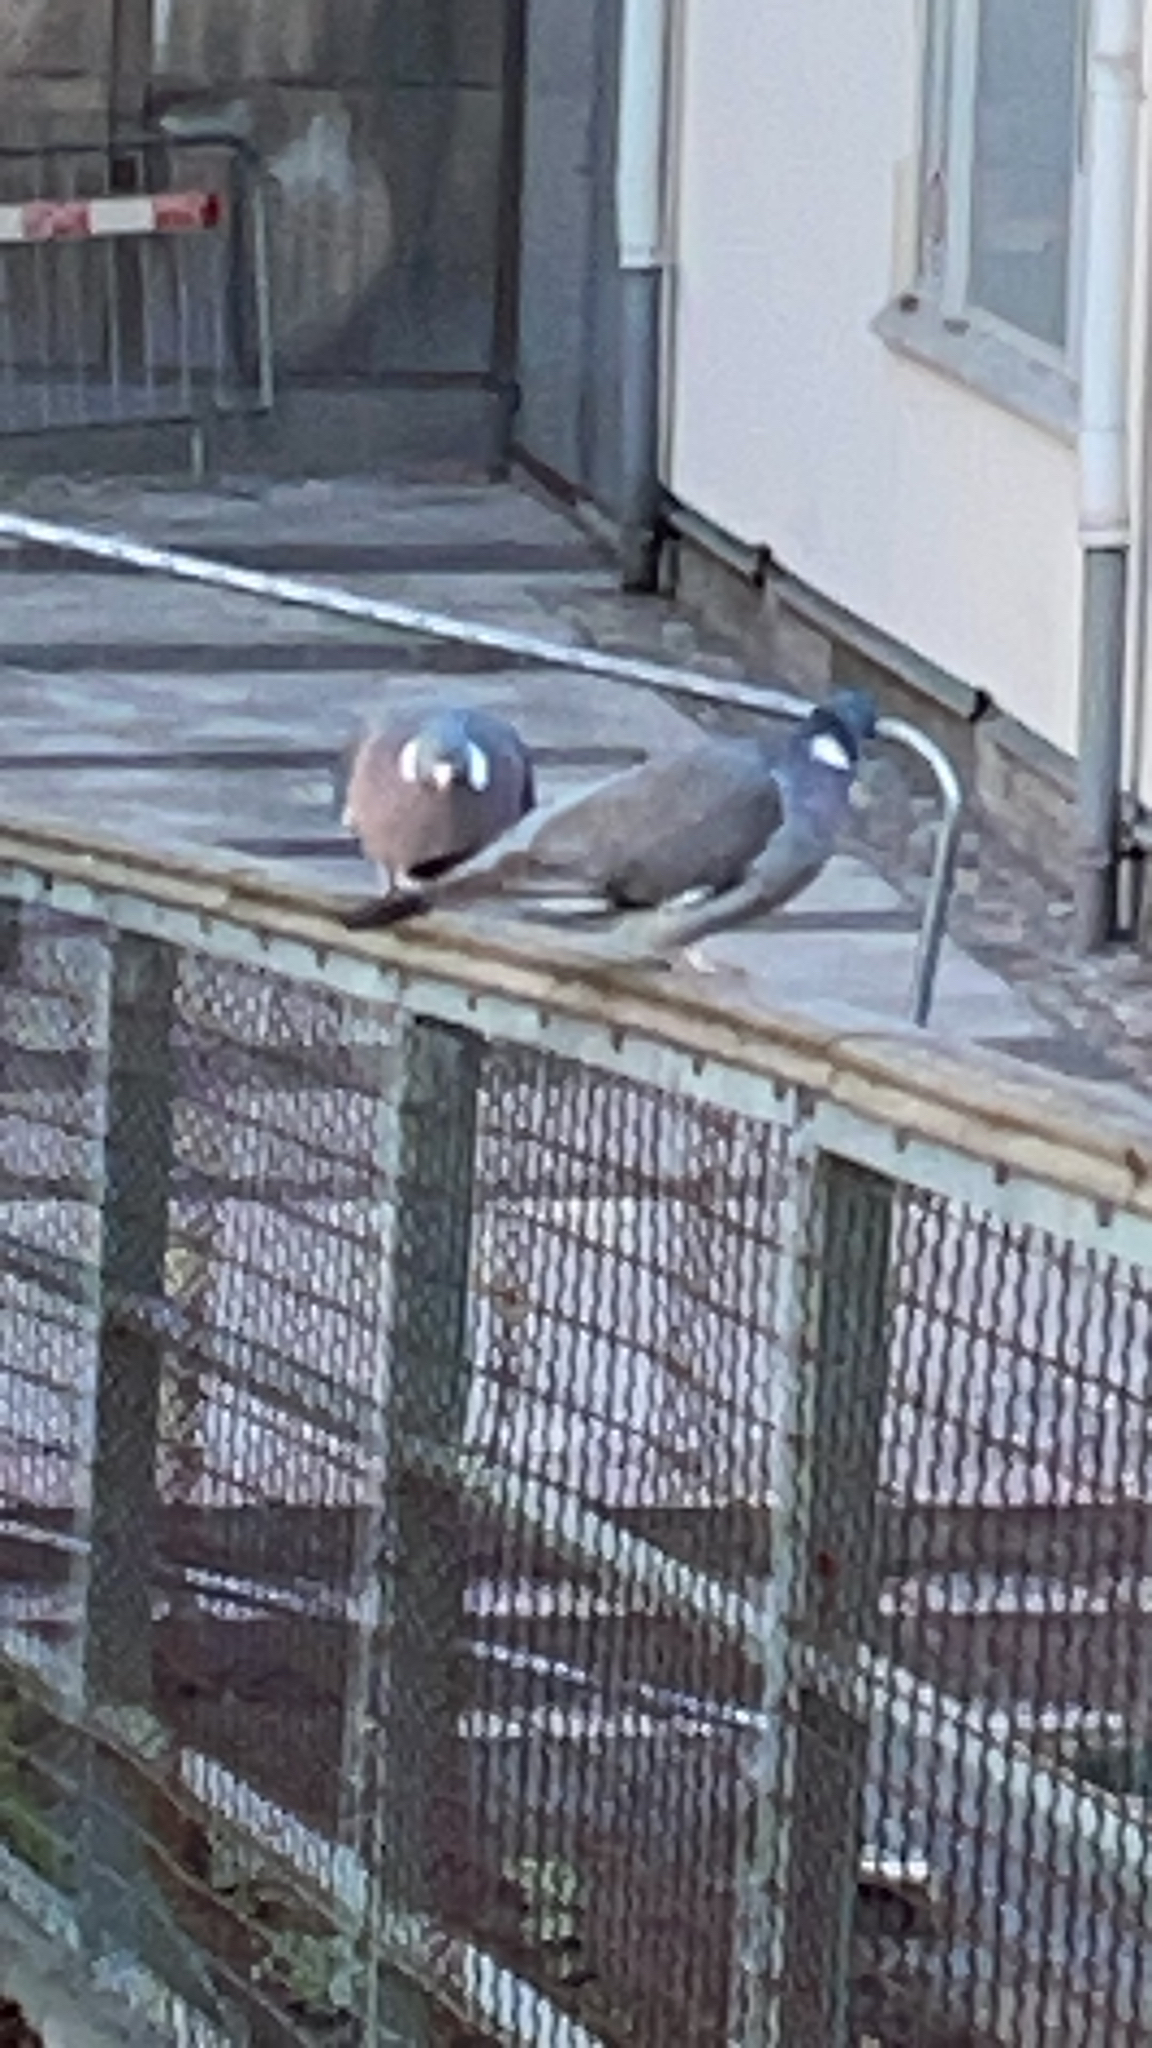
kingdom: Animalia
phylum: Chordata
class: Aves
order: Columbiformes
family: Columbidae
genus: Columba
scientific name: Columba palumbus
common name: Common wood pigeon
